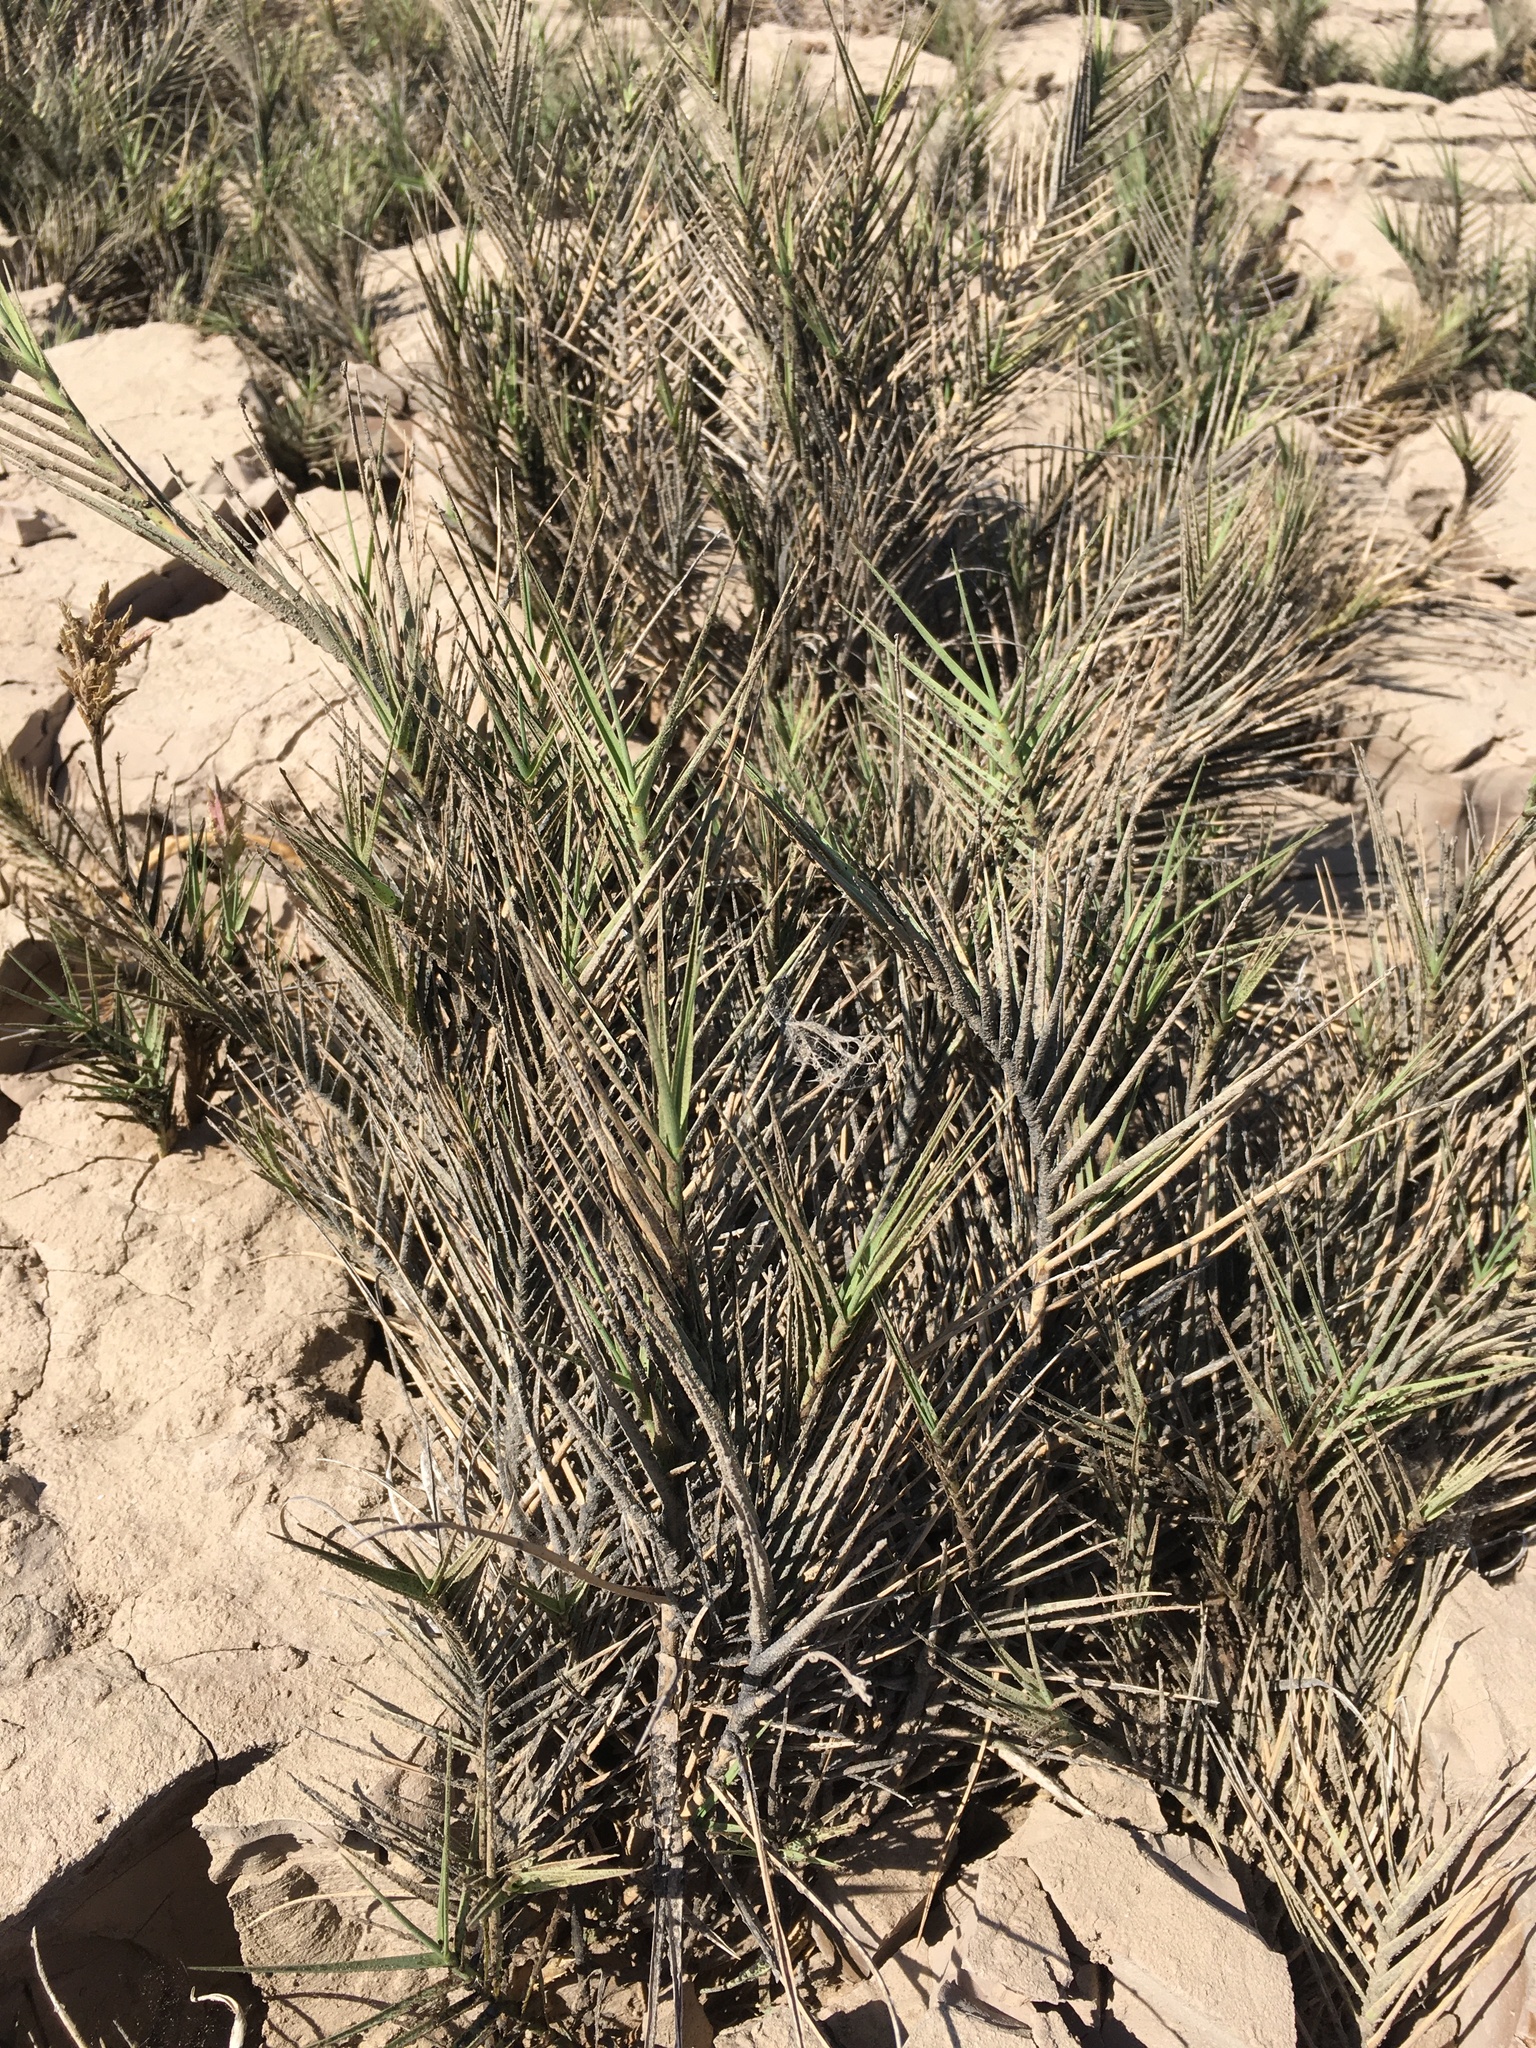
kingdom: Plantae
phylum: Tracheophyta
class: Liliopsida
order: Poales
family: Poaceae
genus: Distichlis
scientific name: Distichlis spicata
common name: Saltgrass
